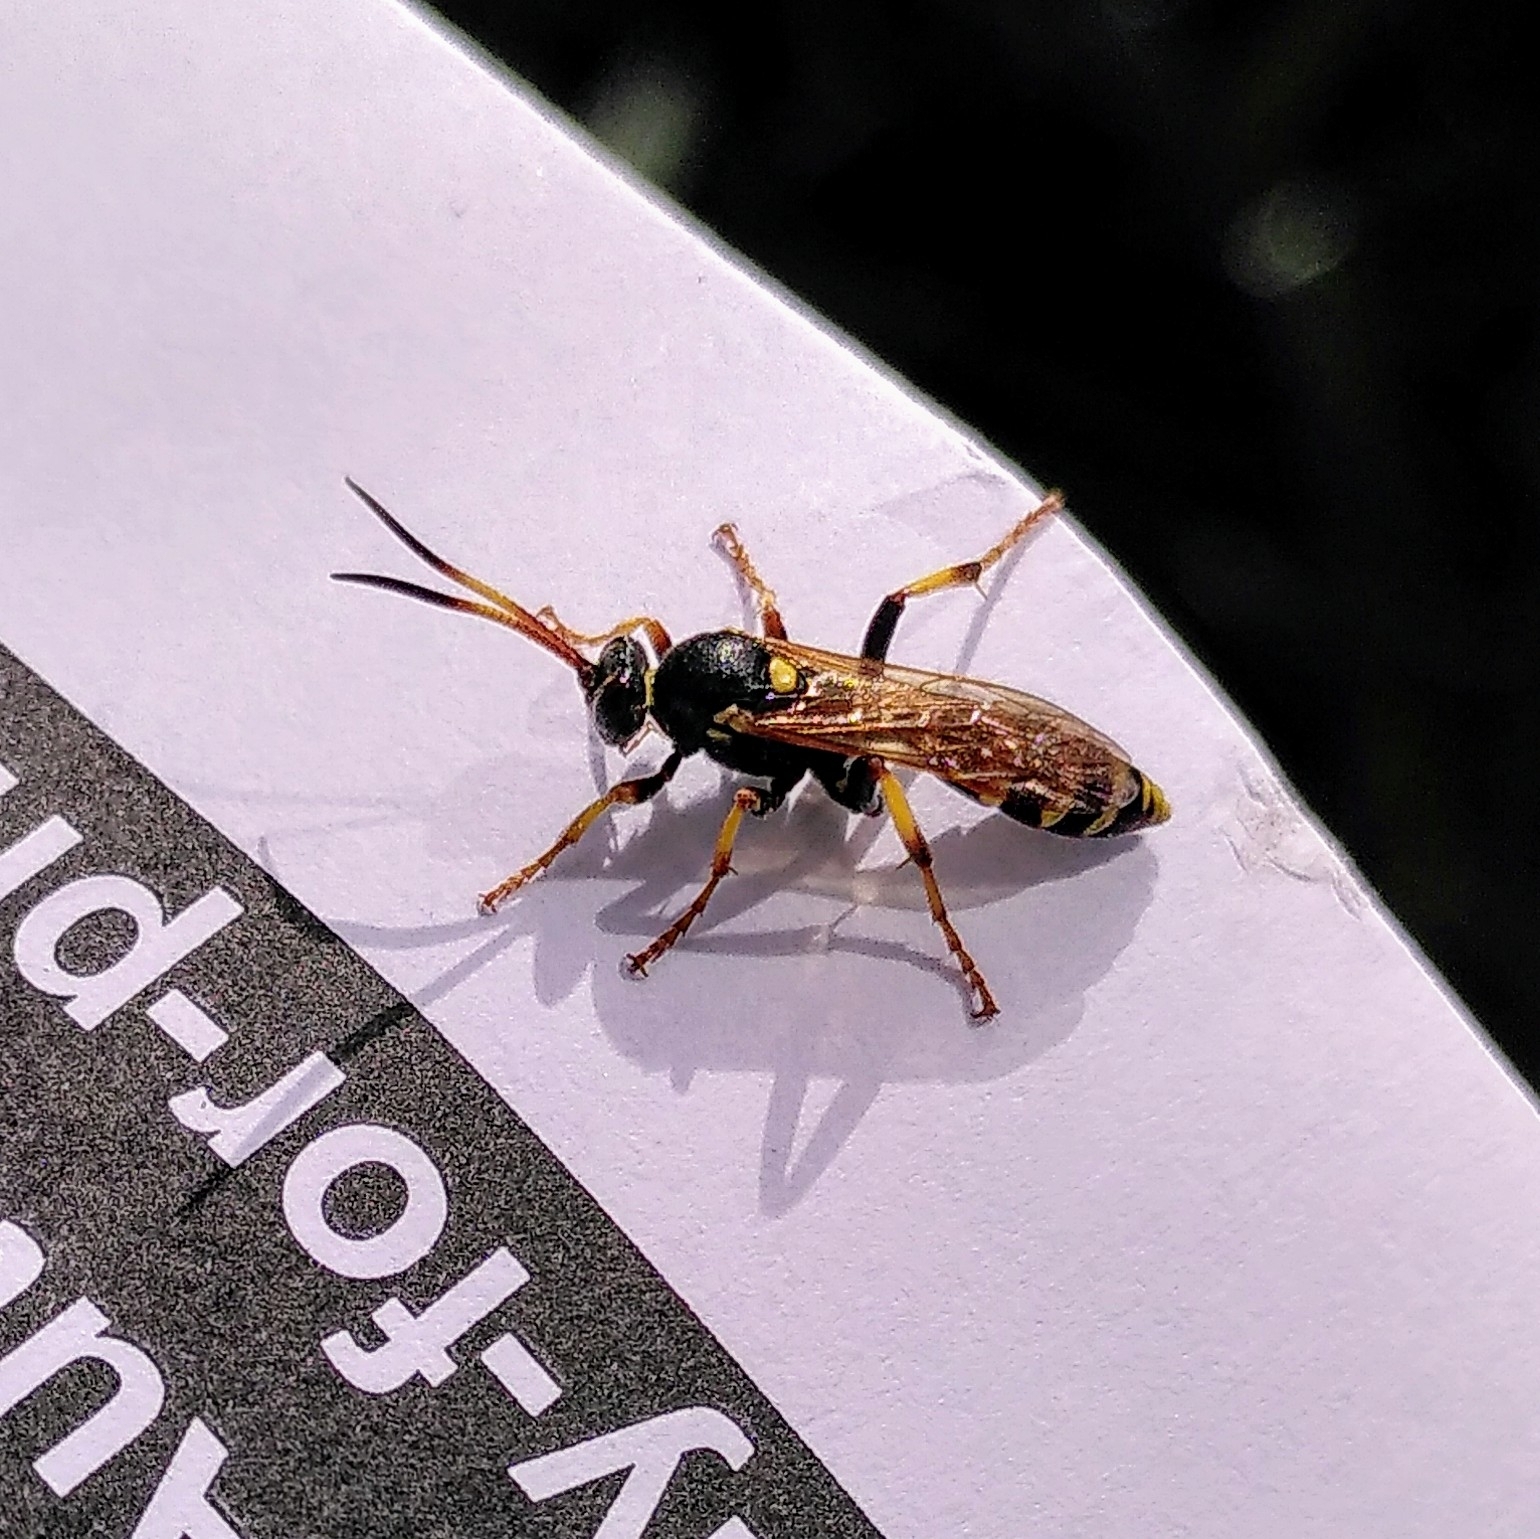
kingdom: Animalia
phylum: Arthropoda
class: Insecta
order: Hymenoptera
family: Ichneumonidae
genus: Ichneumon
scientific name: Ichneumon xanthorius
